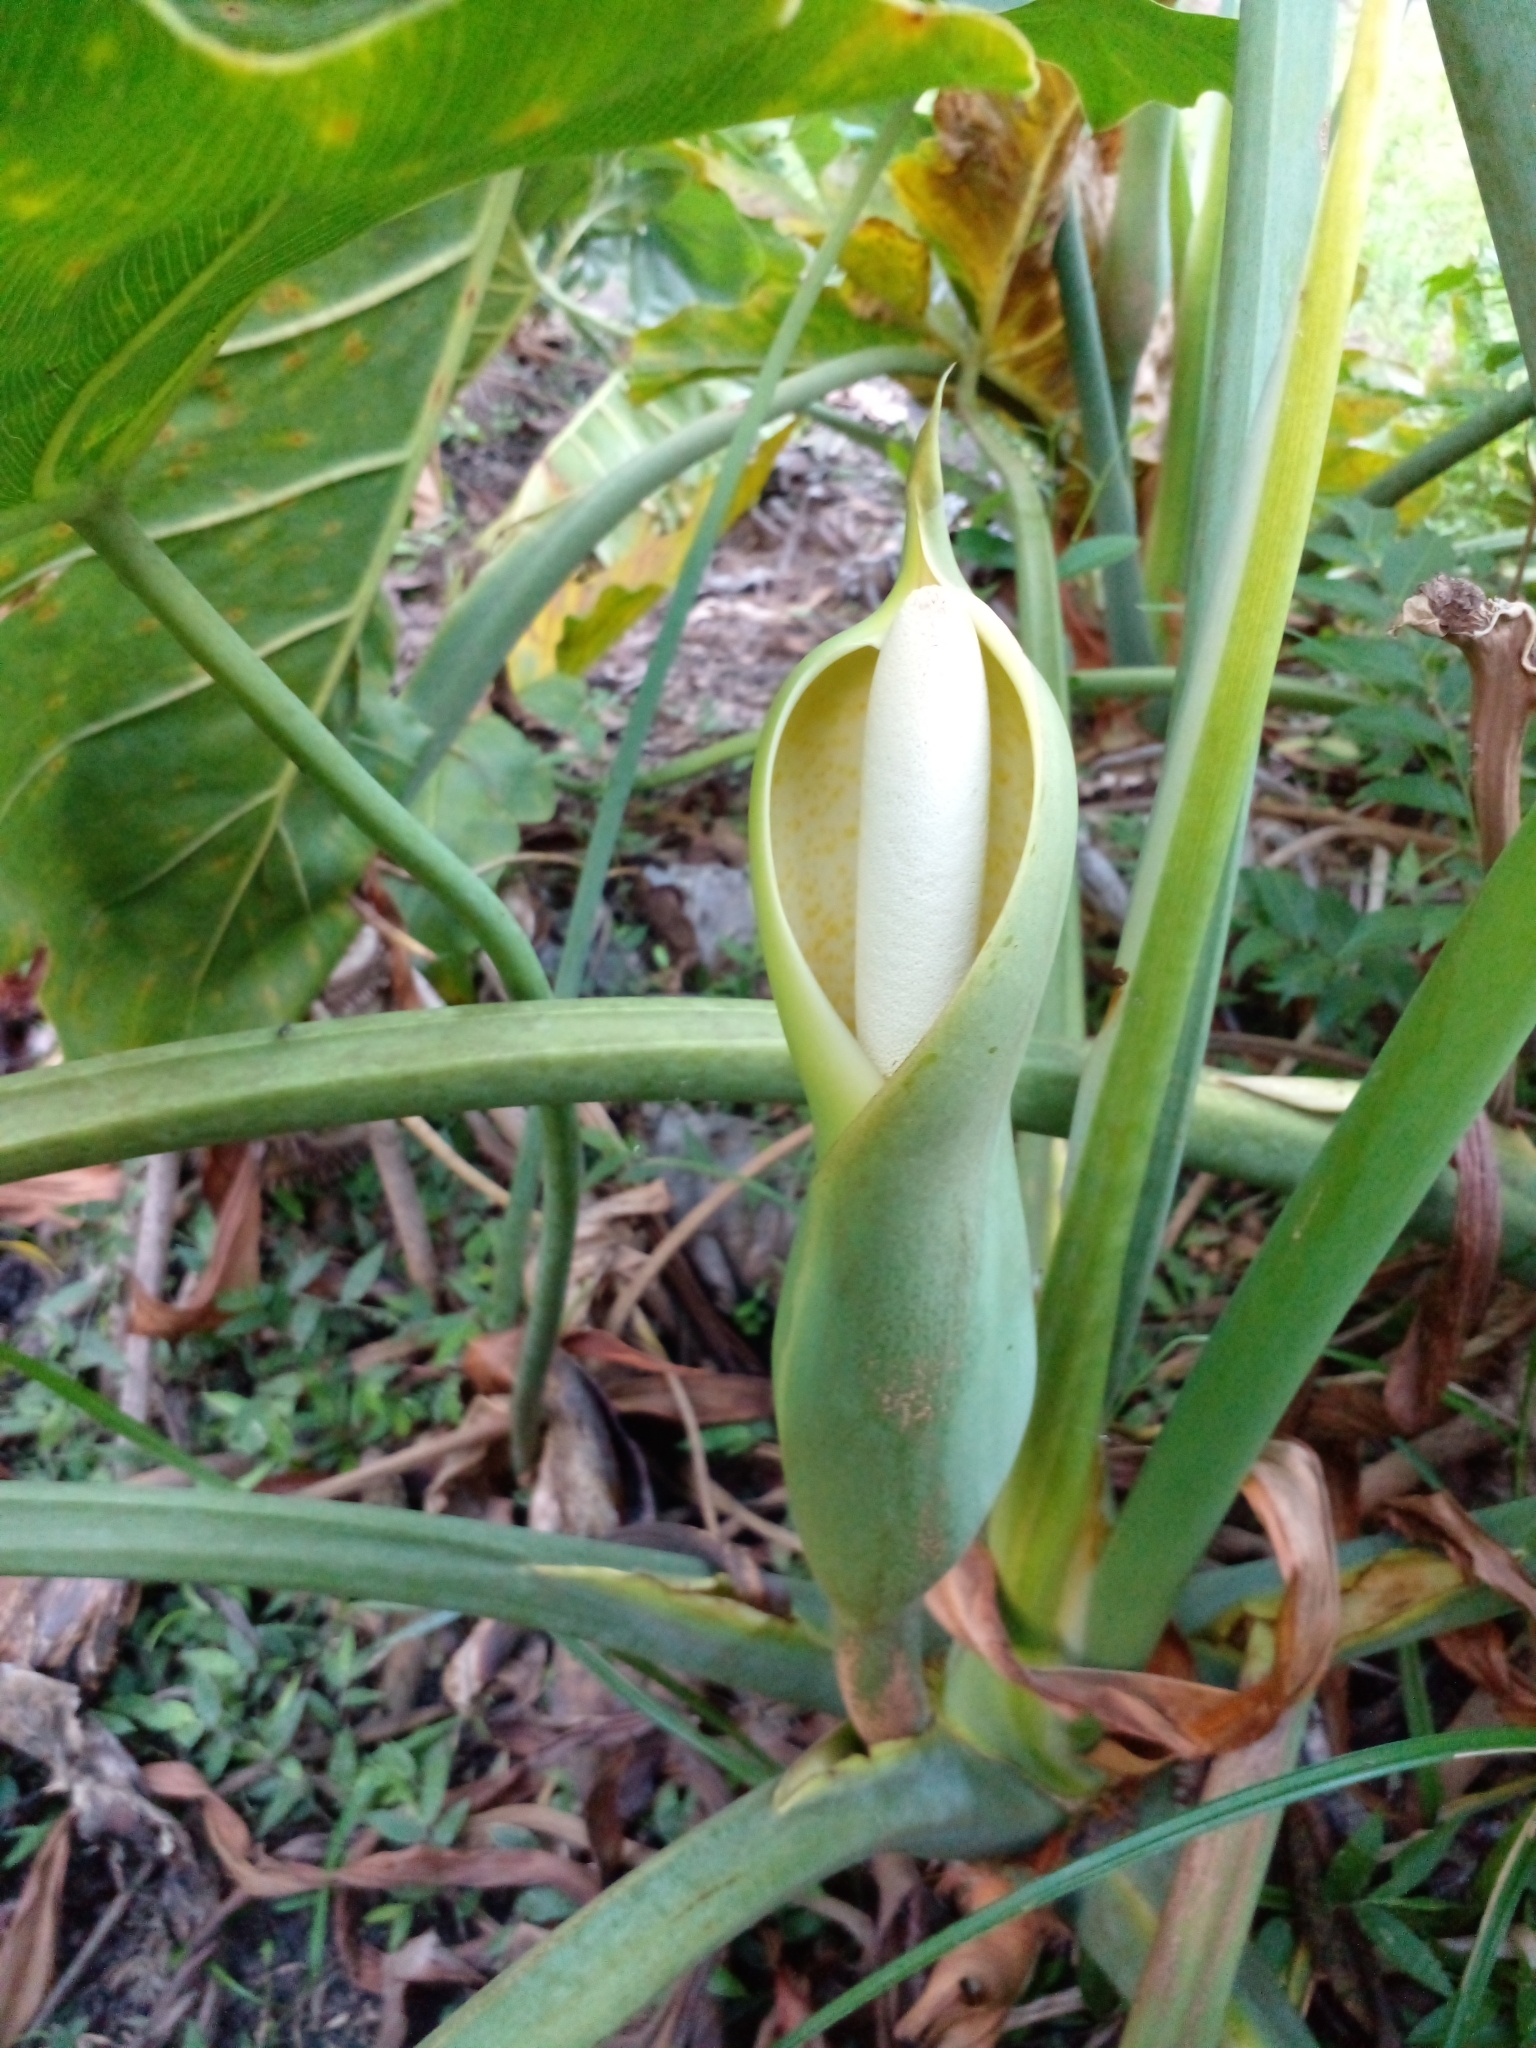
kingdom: Plantae
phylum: Tracheophyta
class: Liliopsida
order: Alismatales
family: Araceae
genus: Thaumatophyllum
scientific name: Thaumatophyllum undulatum
